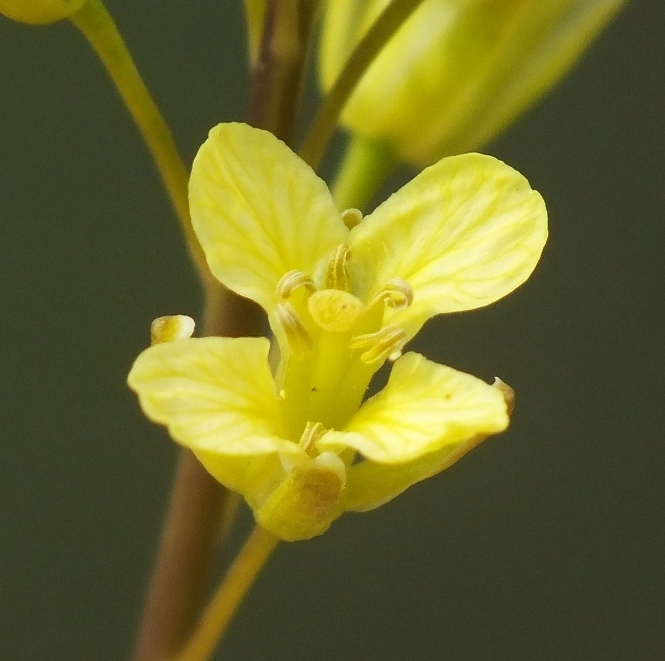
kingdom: Plantae
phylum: Tracheophyta
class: Magnoliopsida
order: Brassicales
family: Brassicaceae
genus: Sisymbrium
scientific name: Sisymbrium polymorphum
